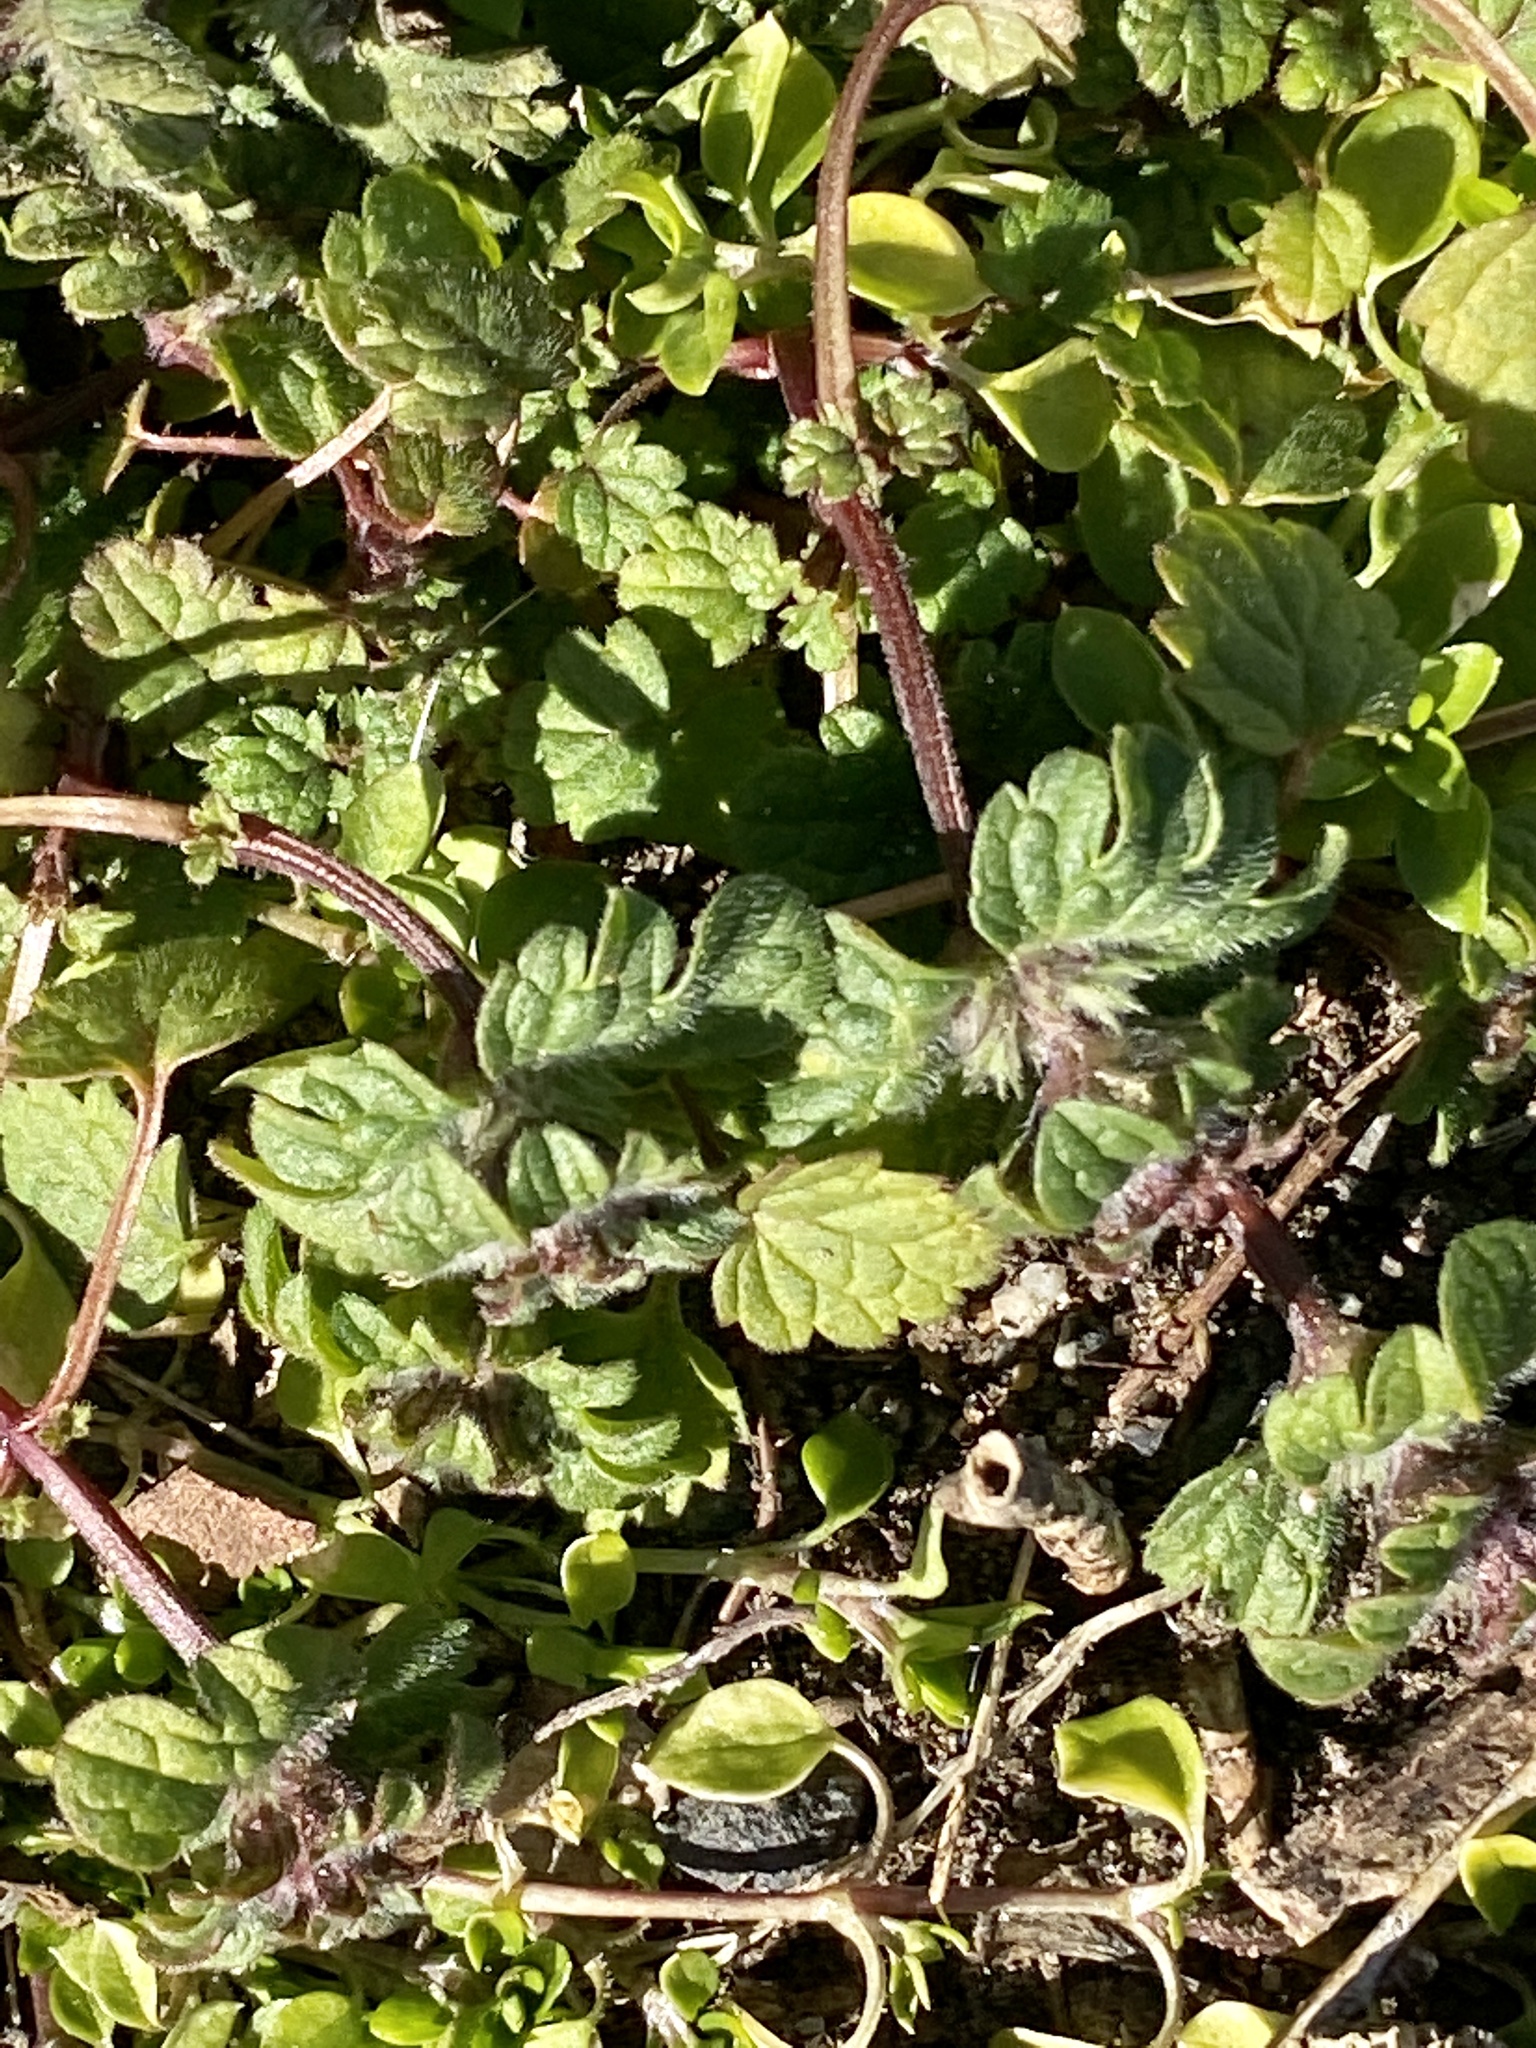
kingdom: Plantae
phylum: Tracheophyta
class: Magnoliopsida
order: Lamiales
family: Lamiaceae
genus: Lamium
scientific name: Lamium amplexicaule
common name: Henbit dead-nettle
